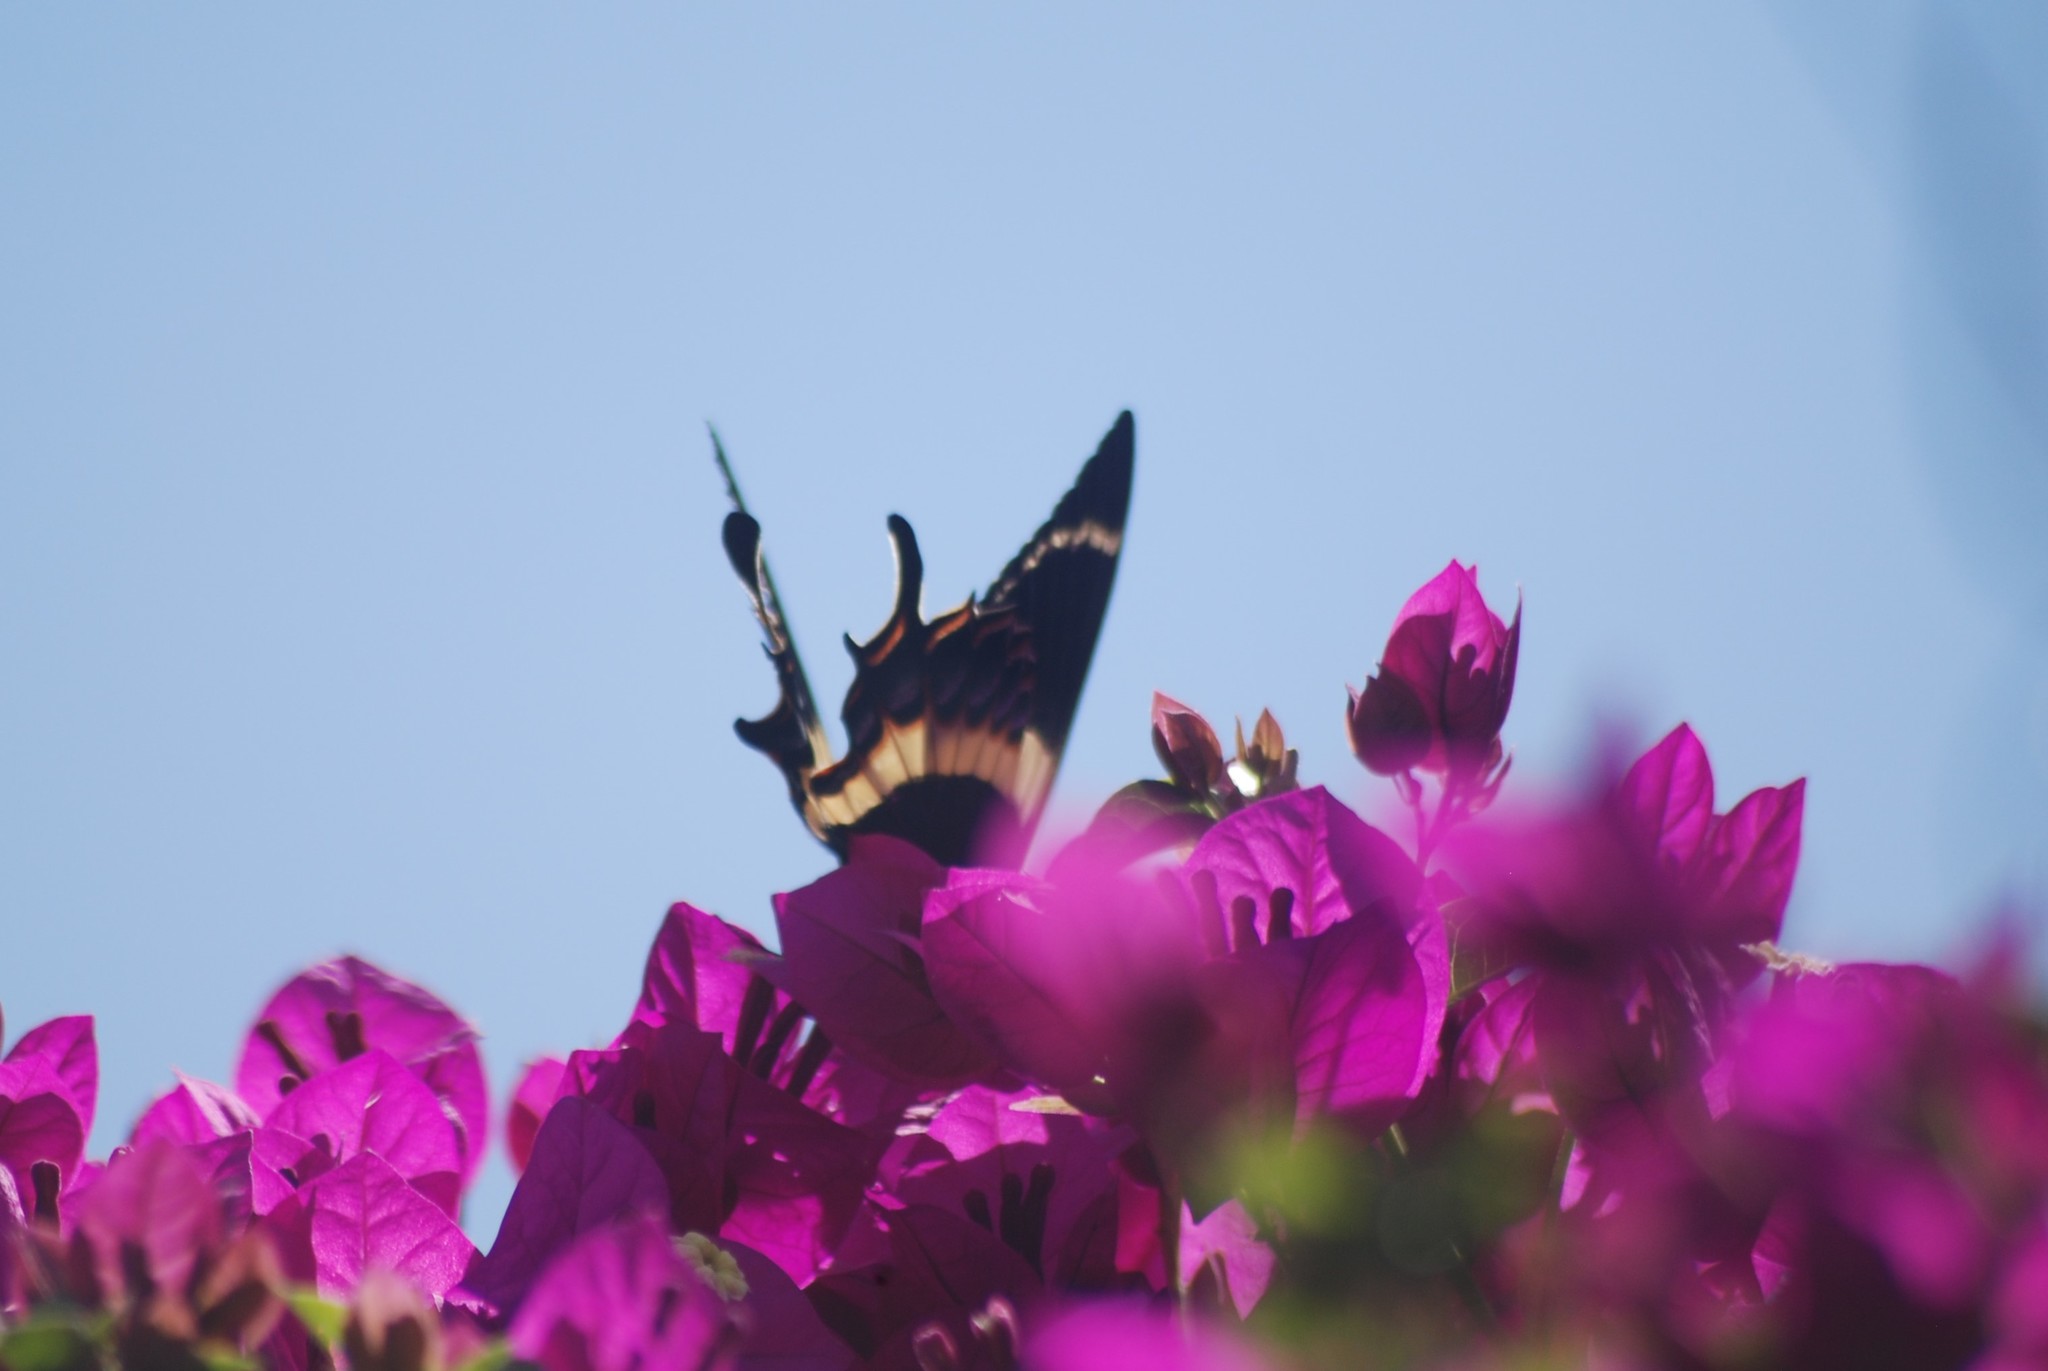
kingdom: Animalia
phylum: Arthropoda
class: Insecta
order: Lepidoptera
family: Papilionidae
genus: Papilio
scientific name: Papilio garamas
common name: Magnificent swallowtail
